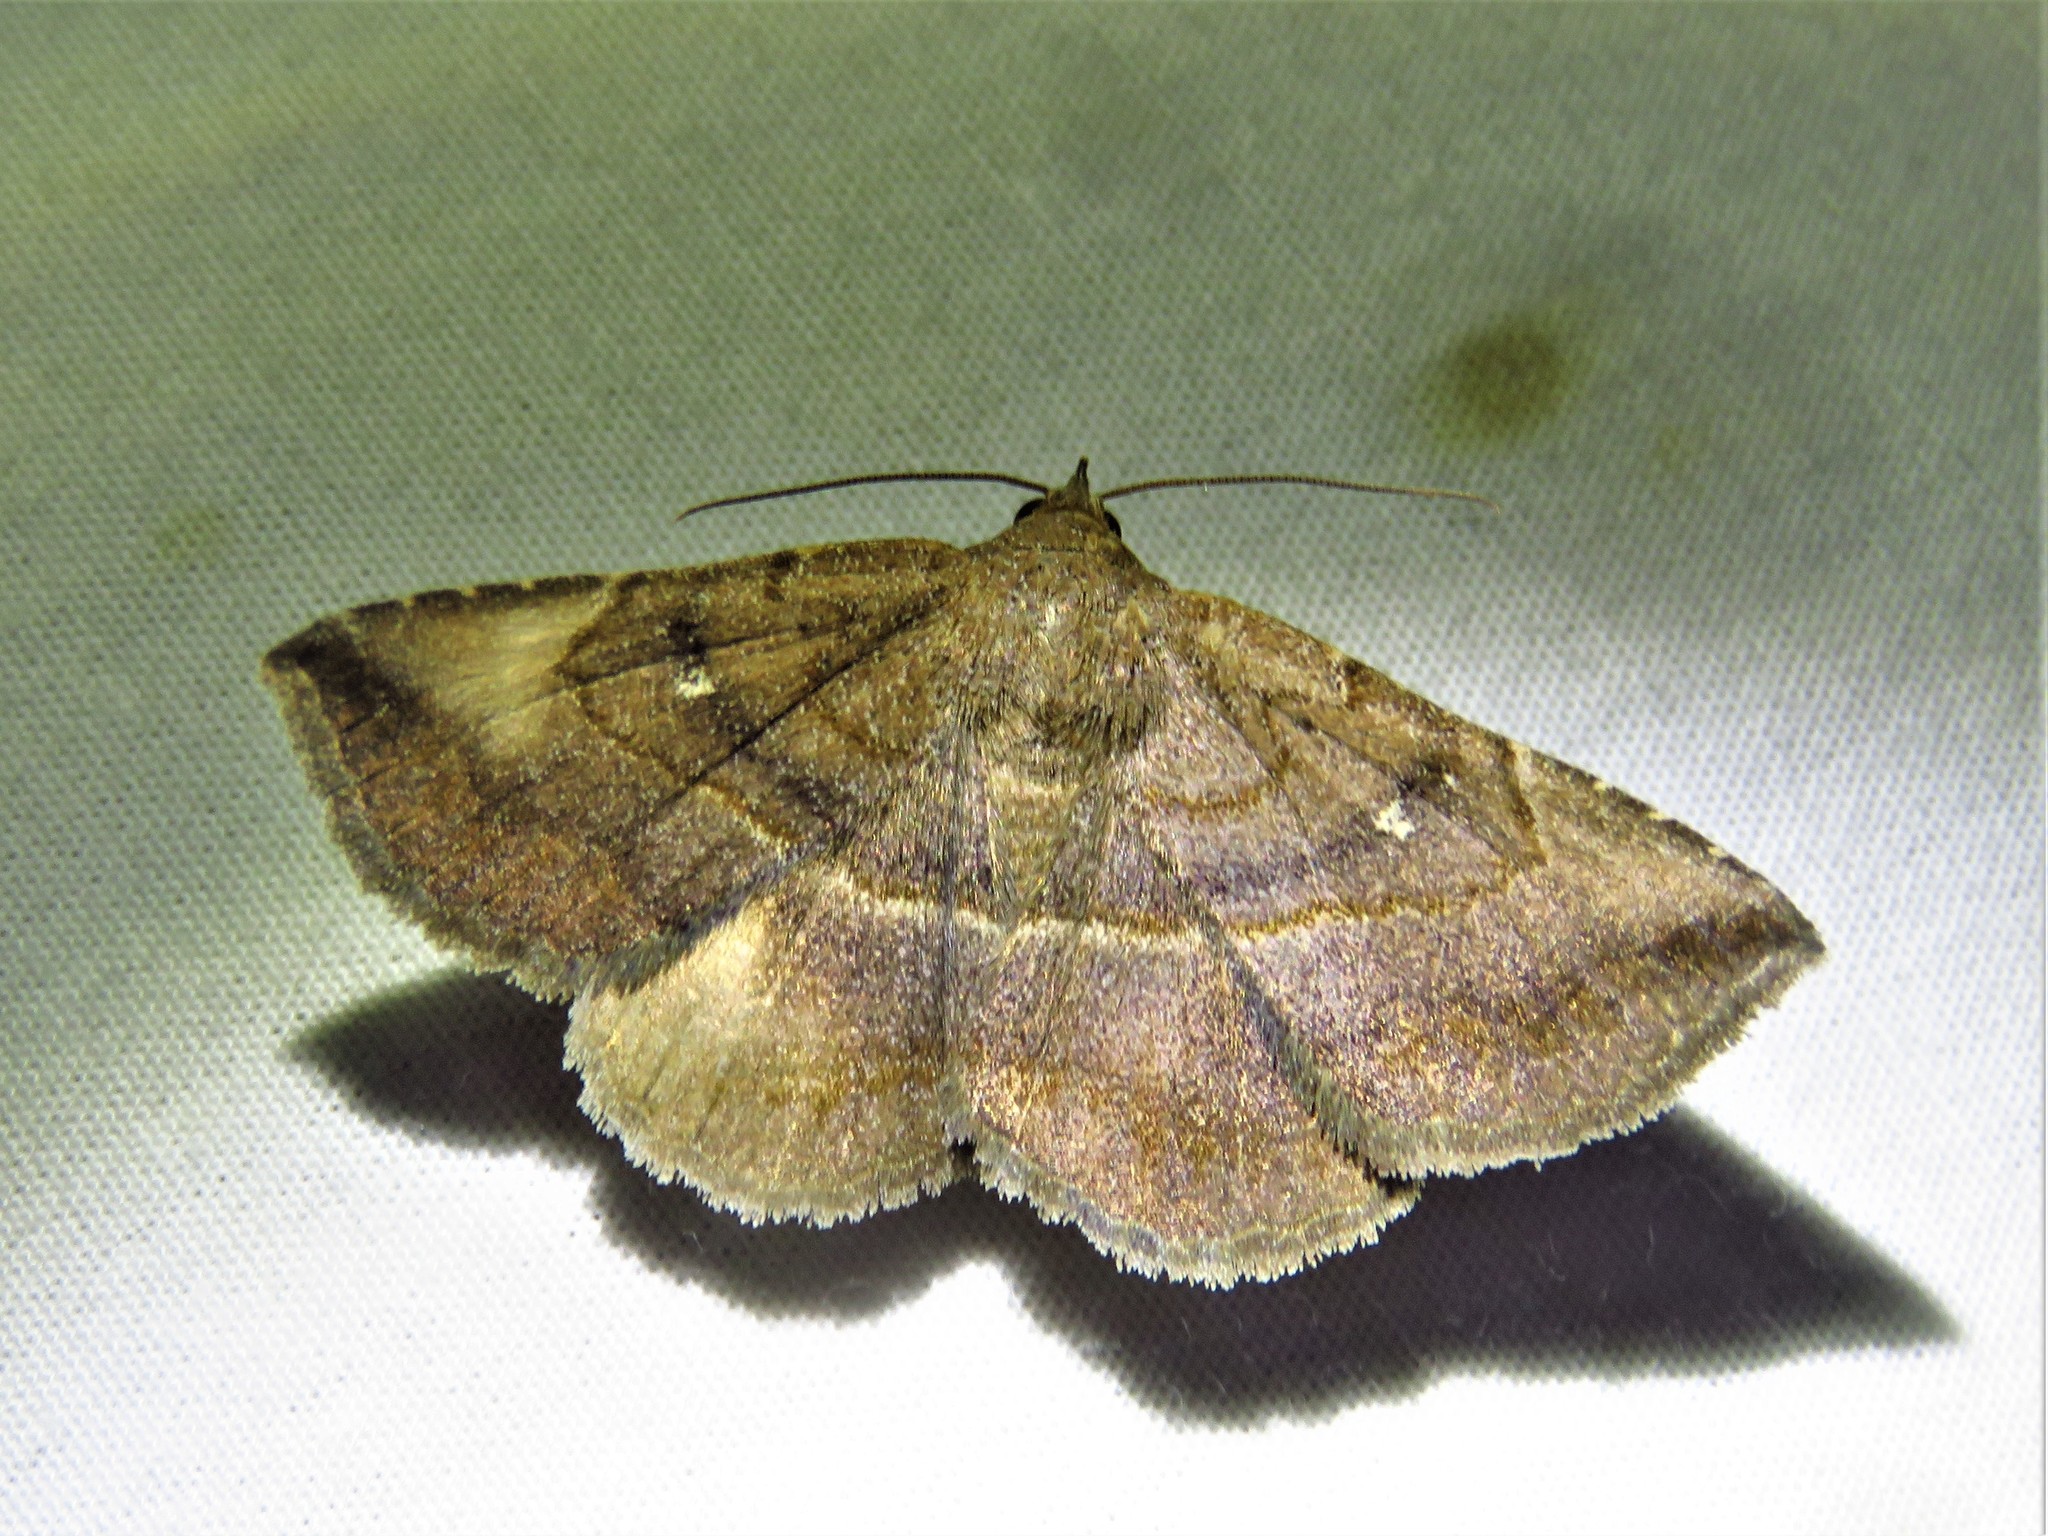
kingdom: Animalia
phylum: Arthropoda
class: Insecta
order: Lepidoptera
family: Erebidae
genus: Lesmone
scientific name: Lesmone detrahens
